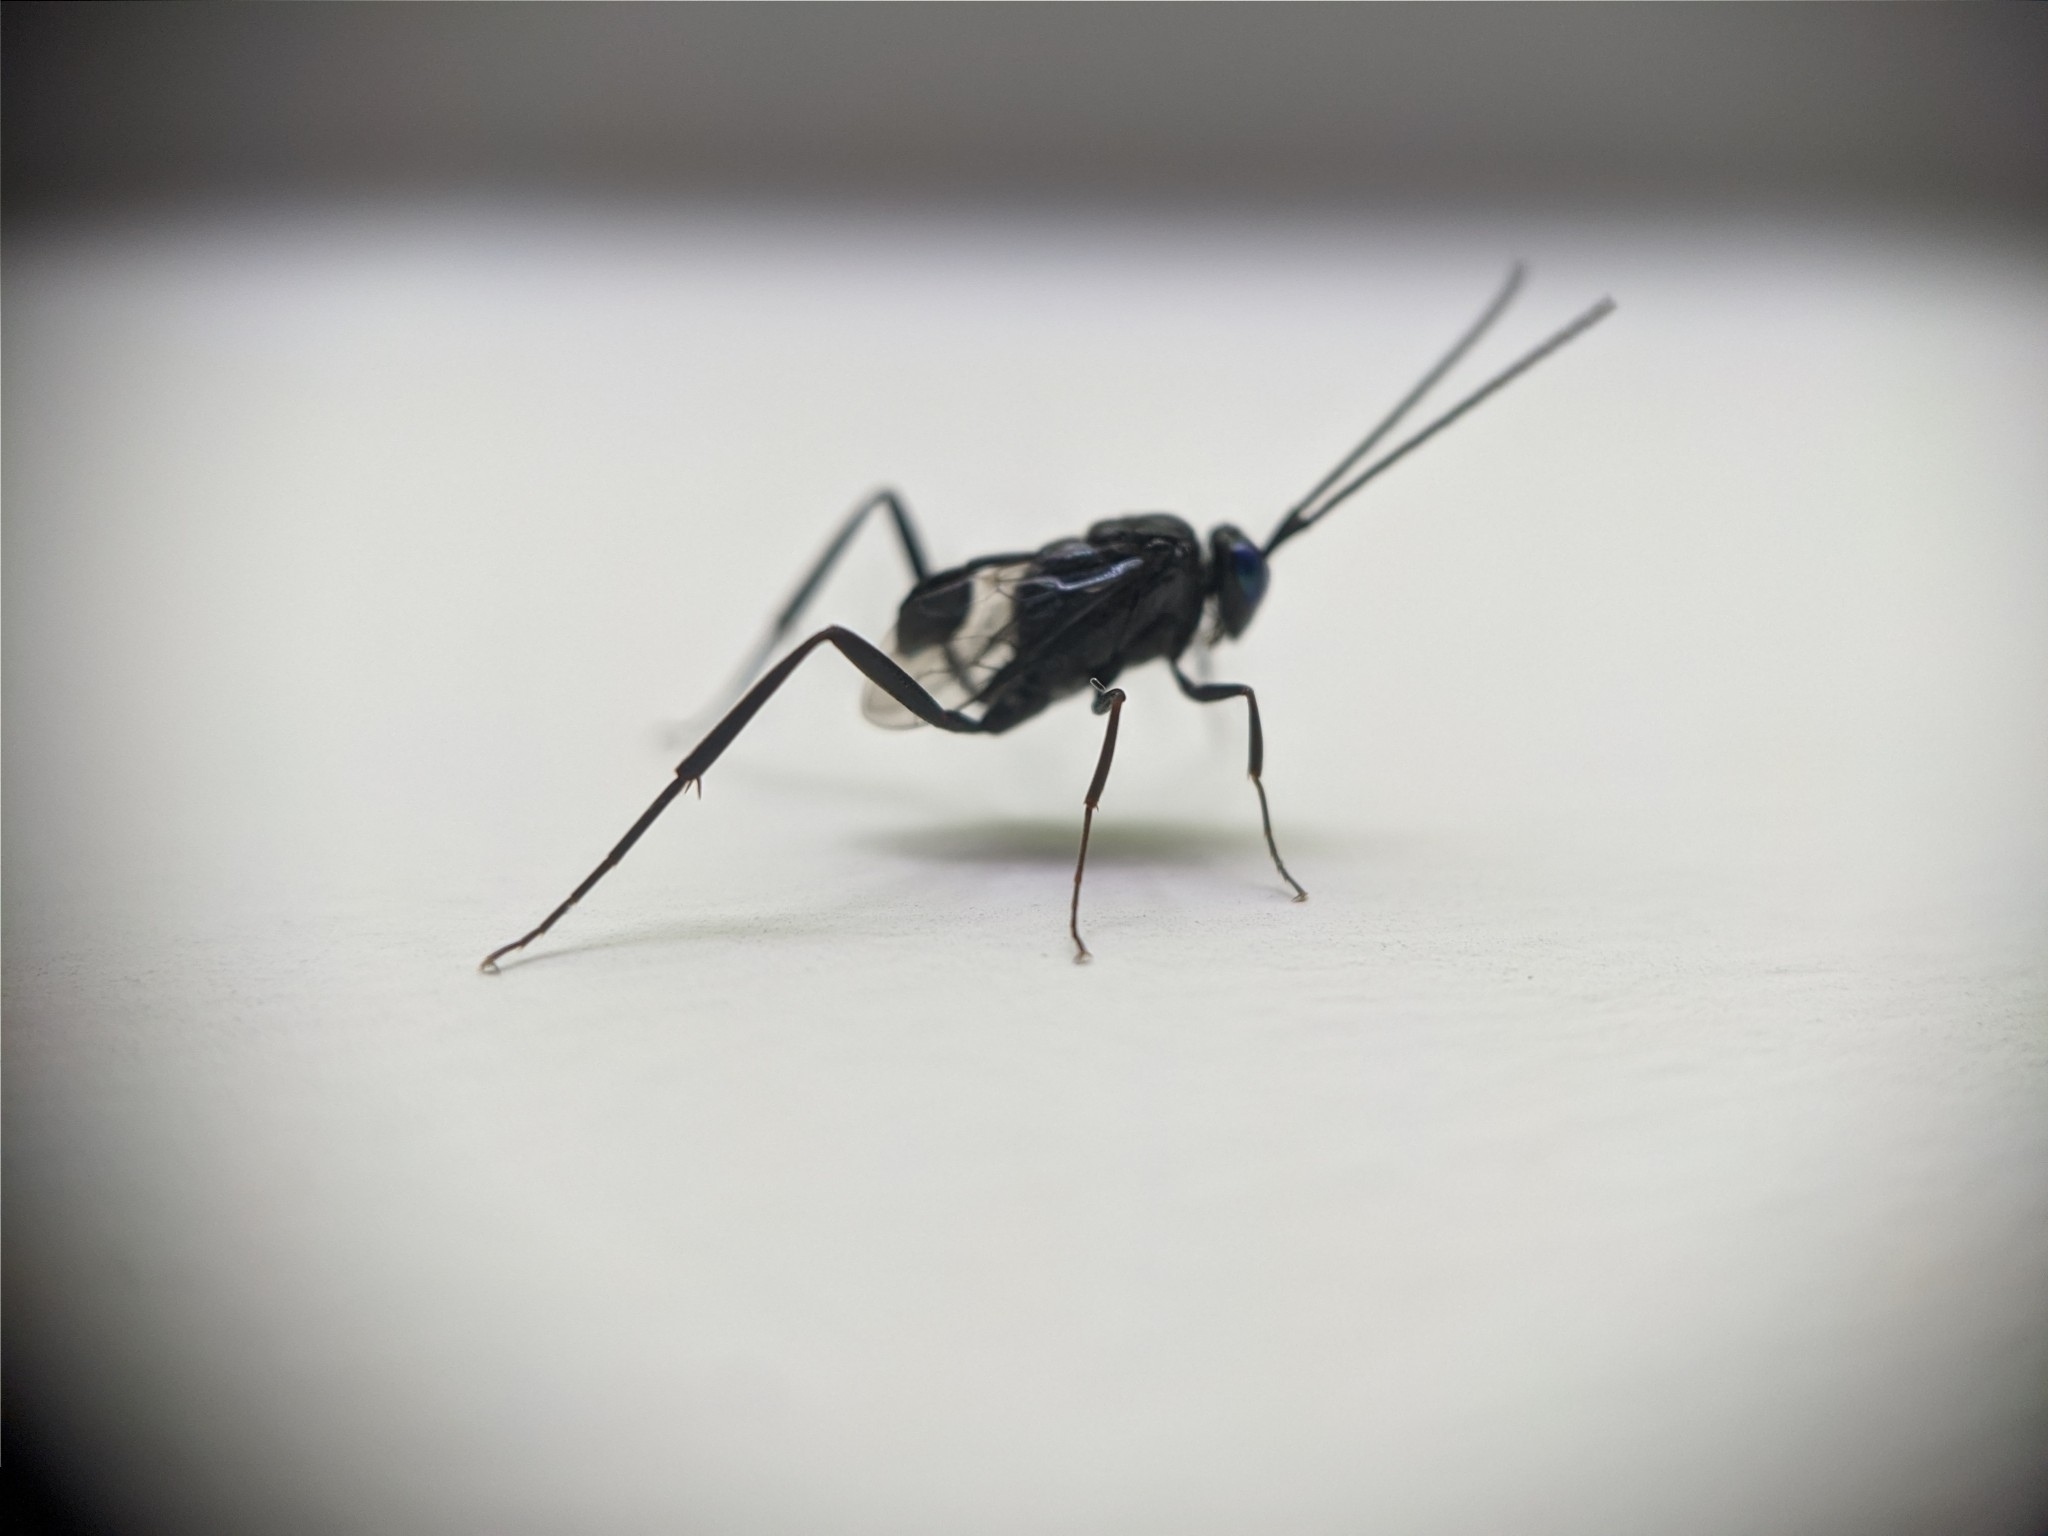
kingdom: Animalia
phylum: Arthropoda
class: Insecta
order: Hymenoptera
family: Evaniidae
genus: Evania
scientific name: Evania appendigaster
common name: Ensign wasp
